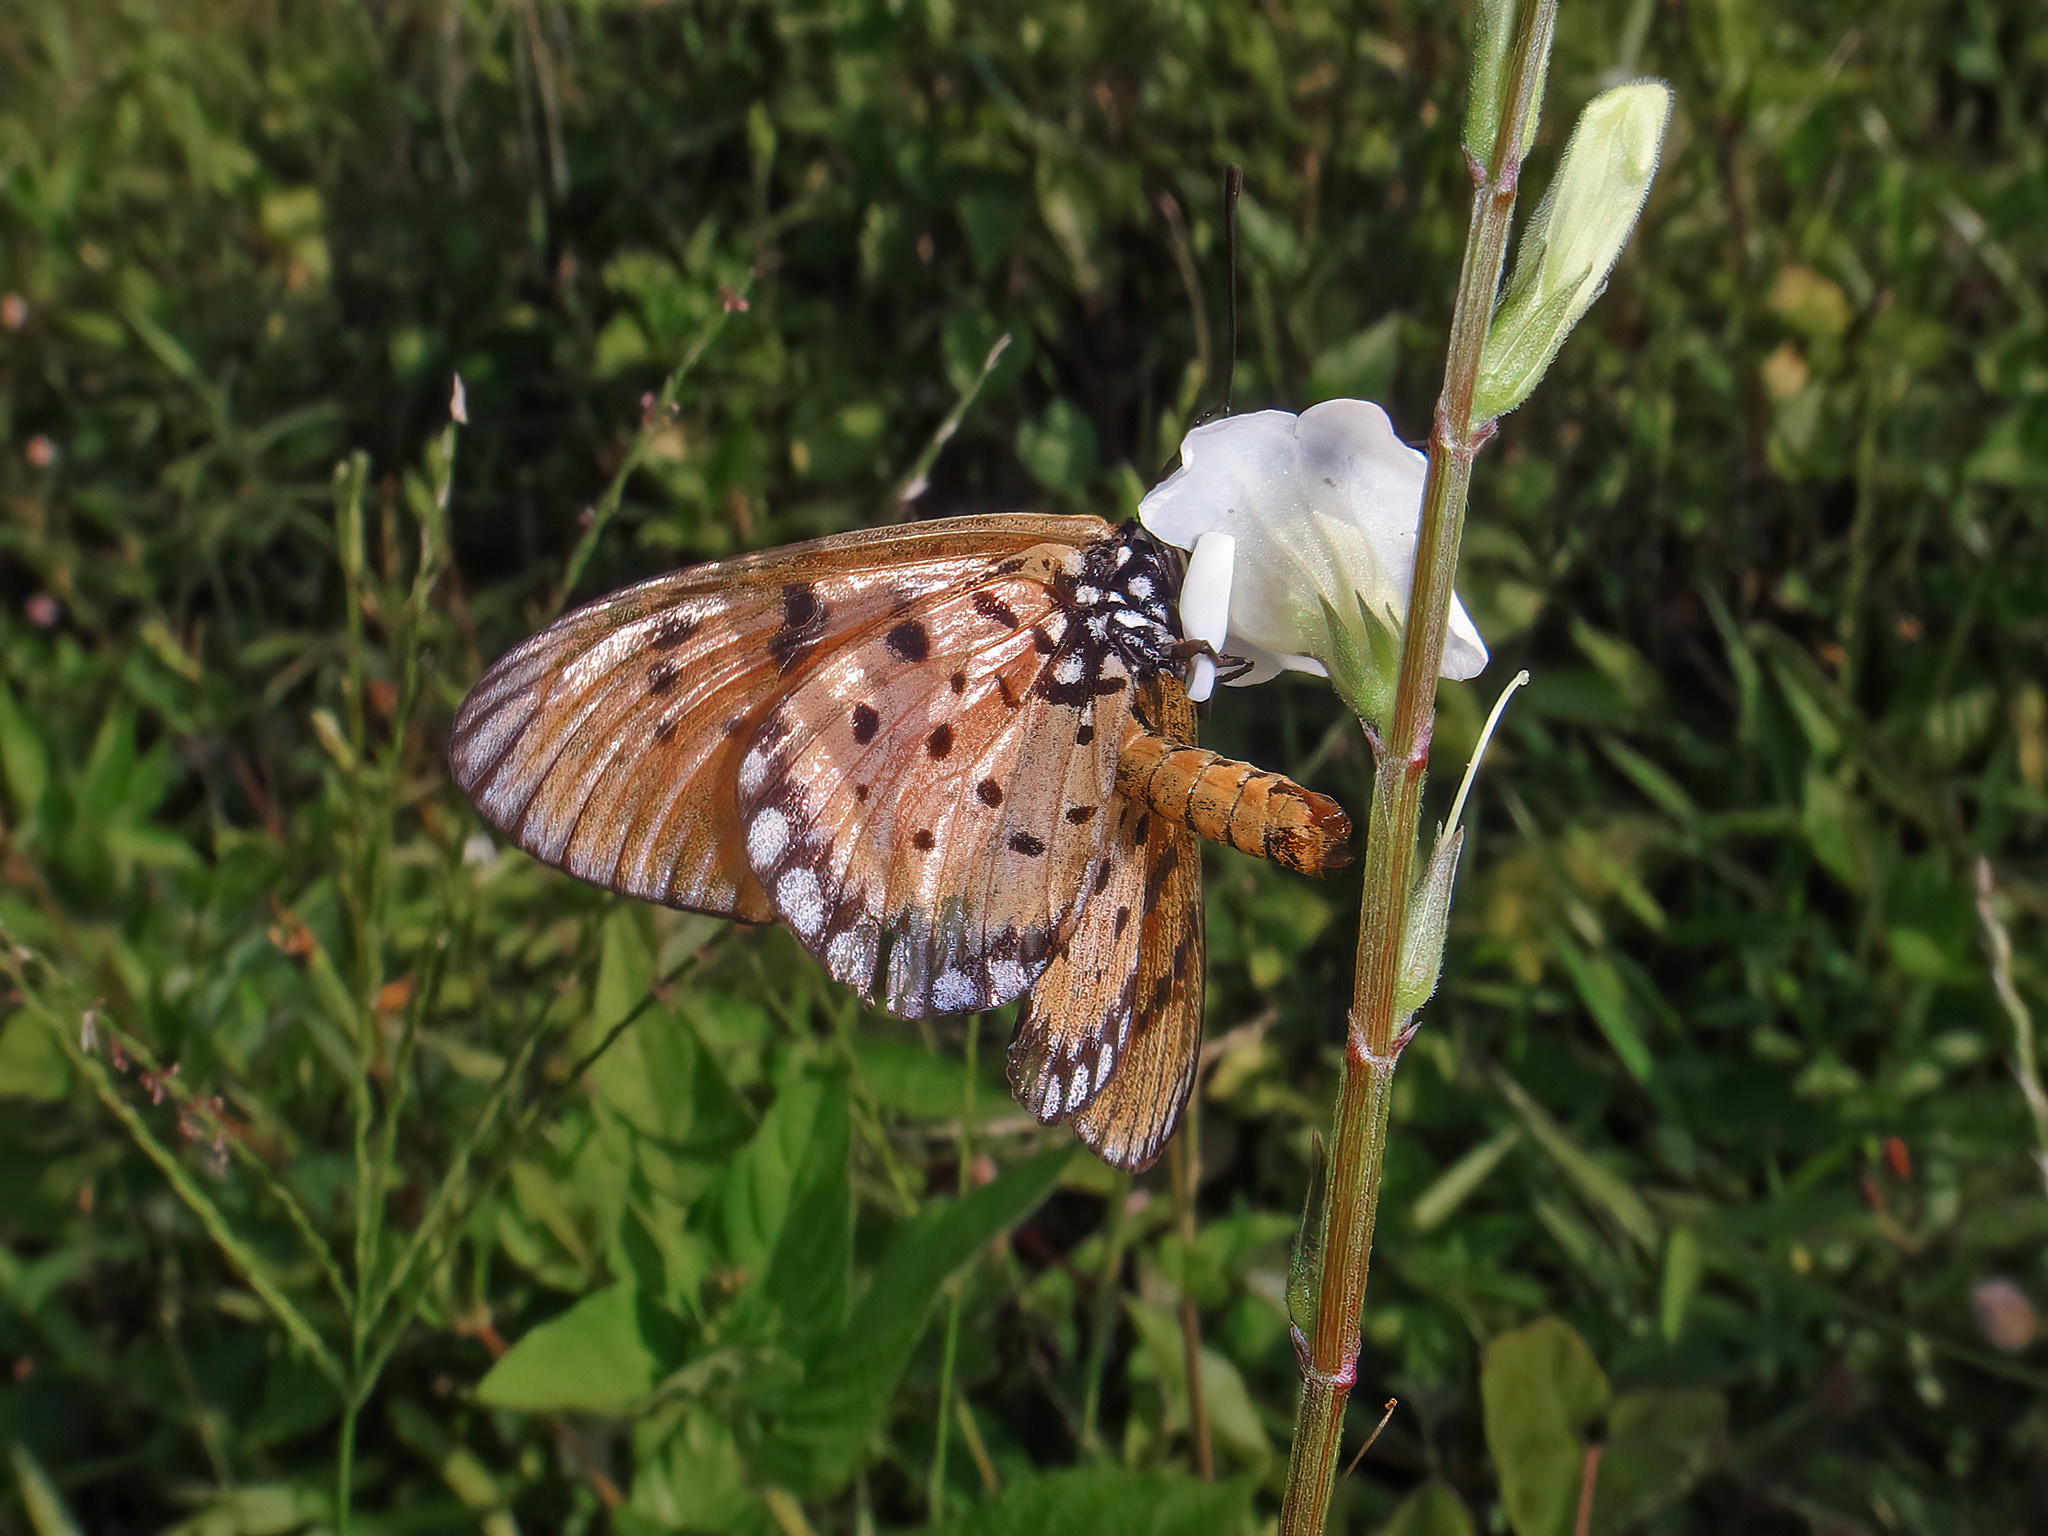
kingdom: Animalia
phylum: Arthropoda
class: Insecta
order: Lepidoptera
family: Nymphalidae
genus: Acraea
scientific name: Acraea terpsicore
